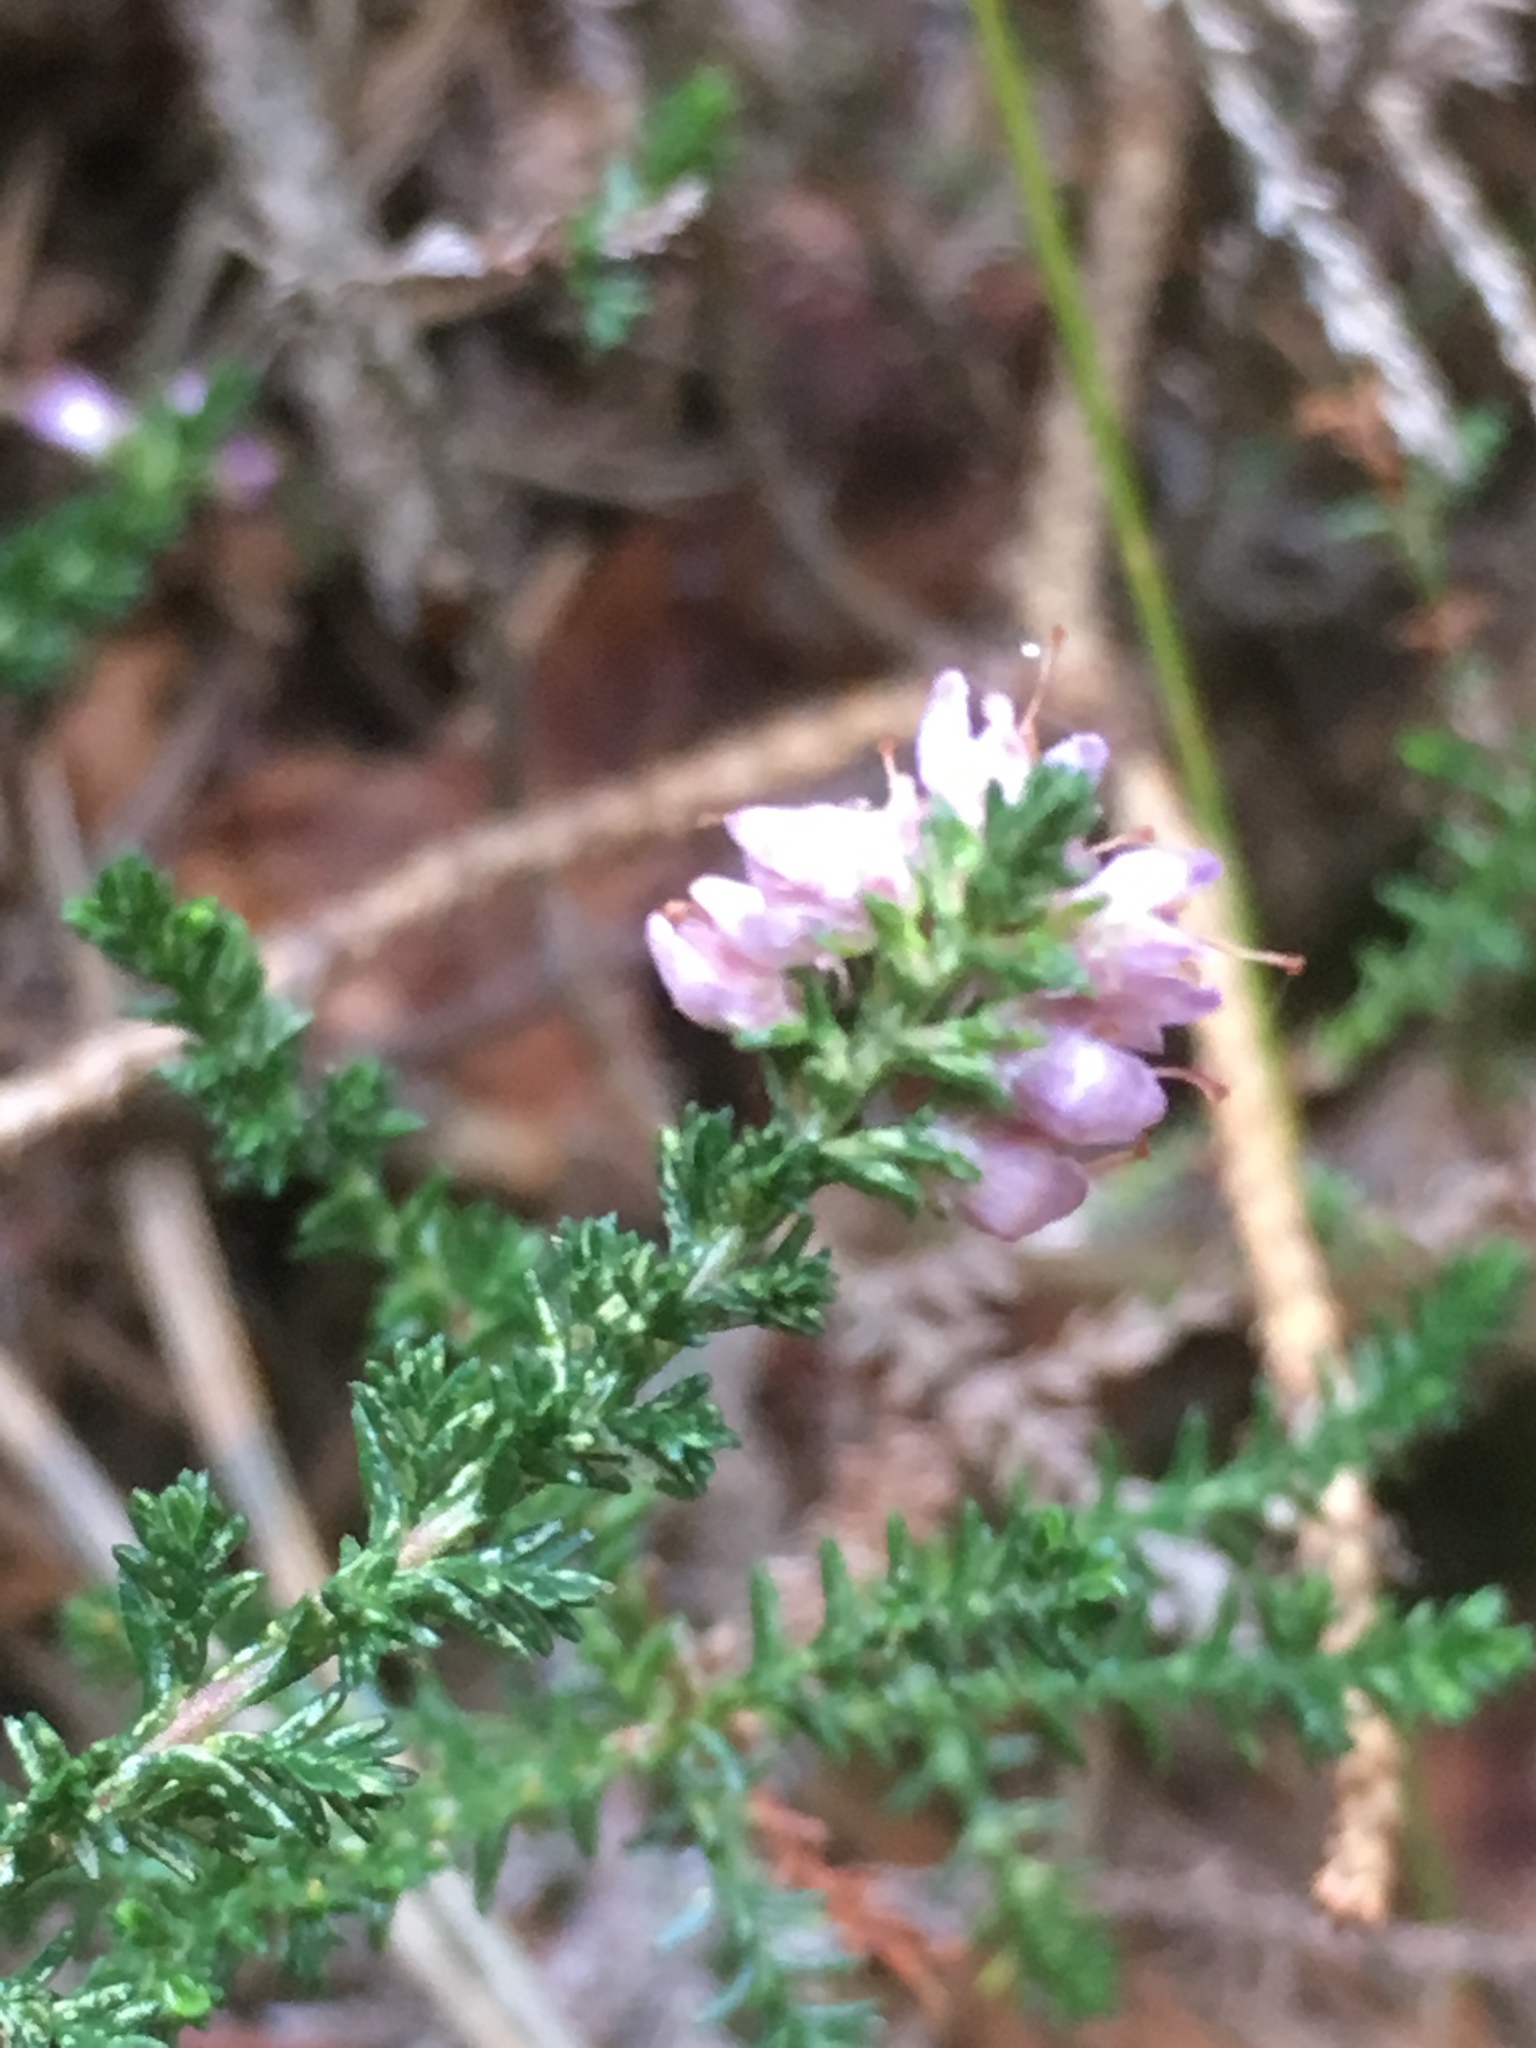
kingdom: Plantae
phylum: Tracheophyta
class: Magnoliopsida
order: Ericales
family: Ericaceae
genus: Calluna
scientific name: Calluna vulgaris
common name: Heather
